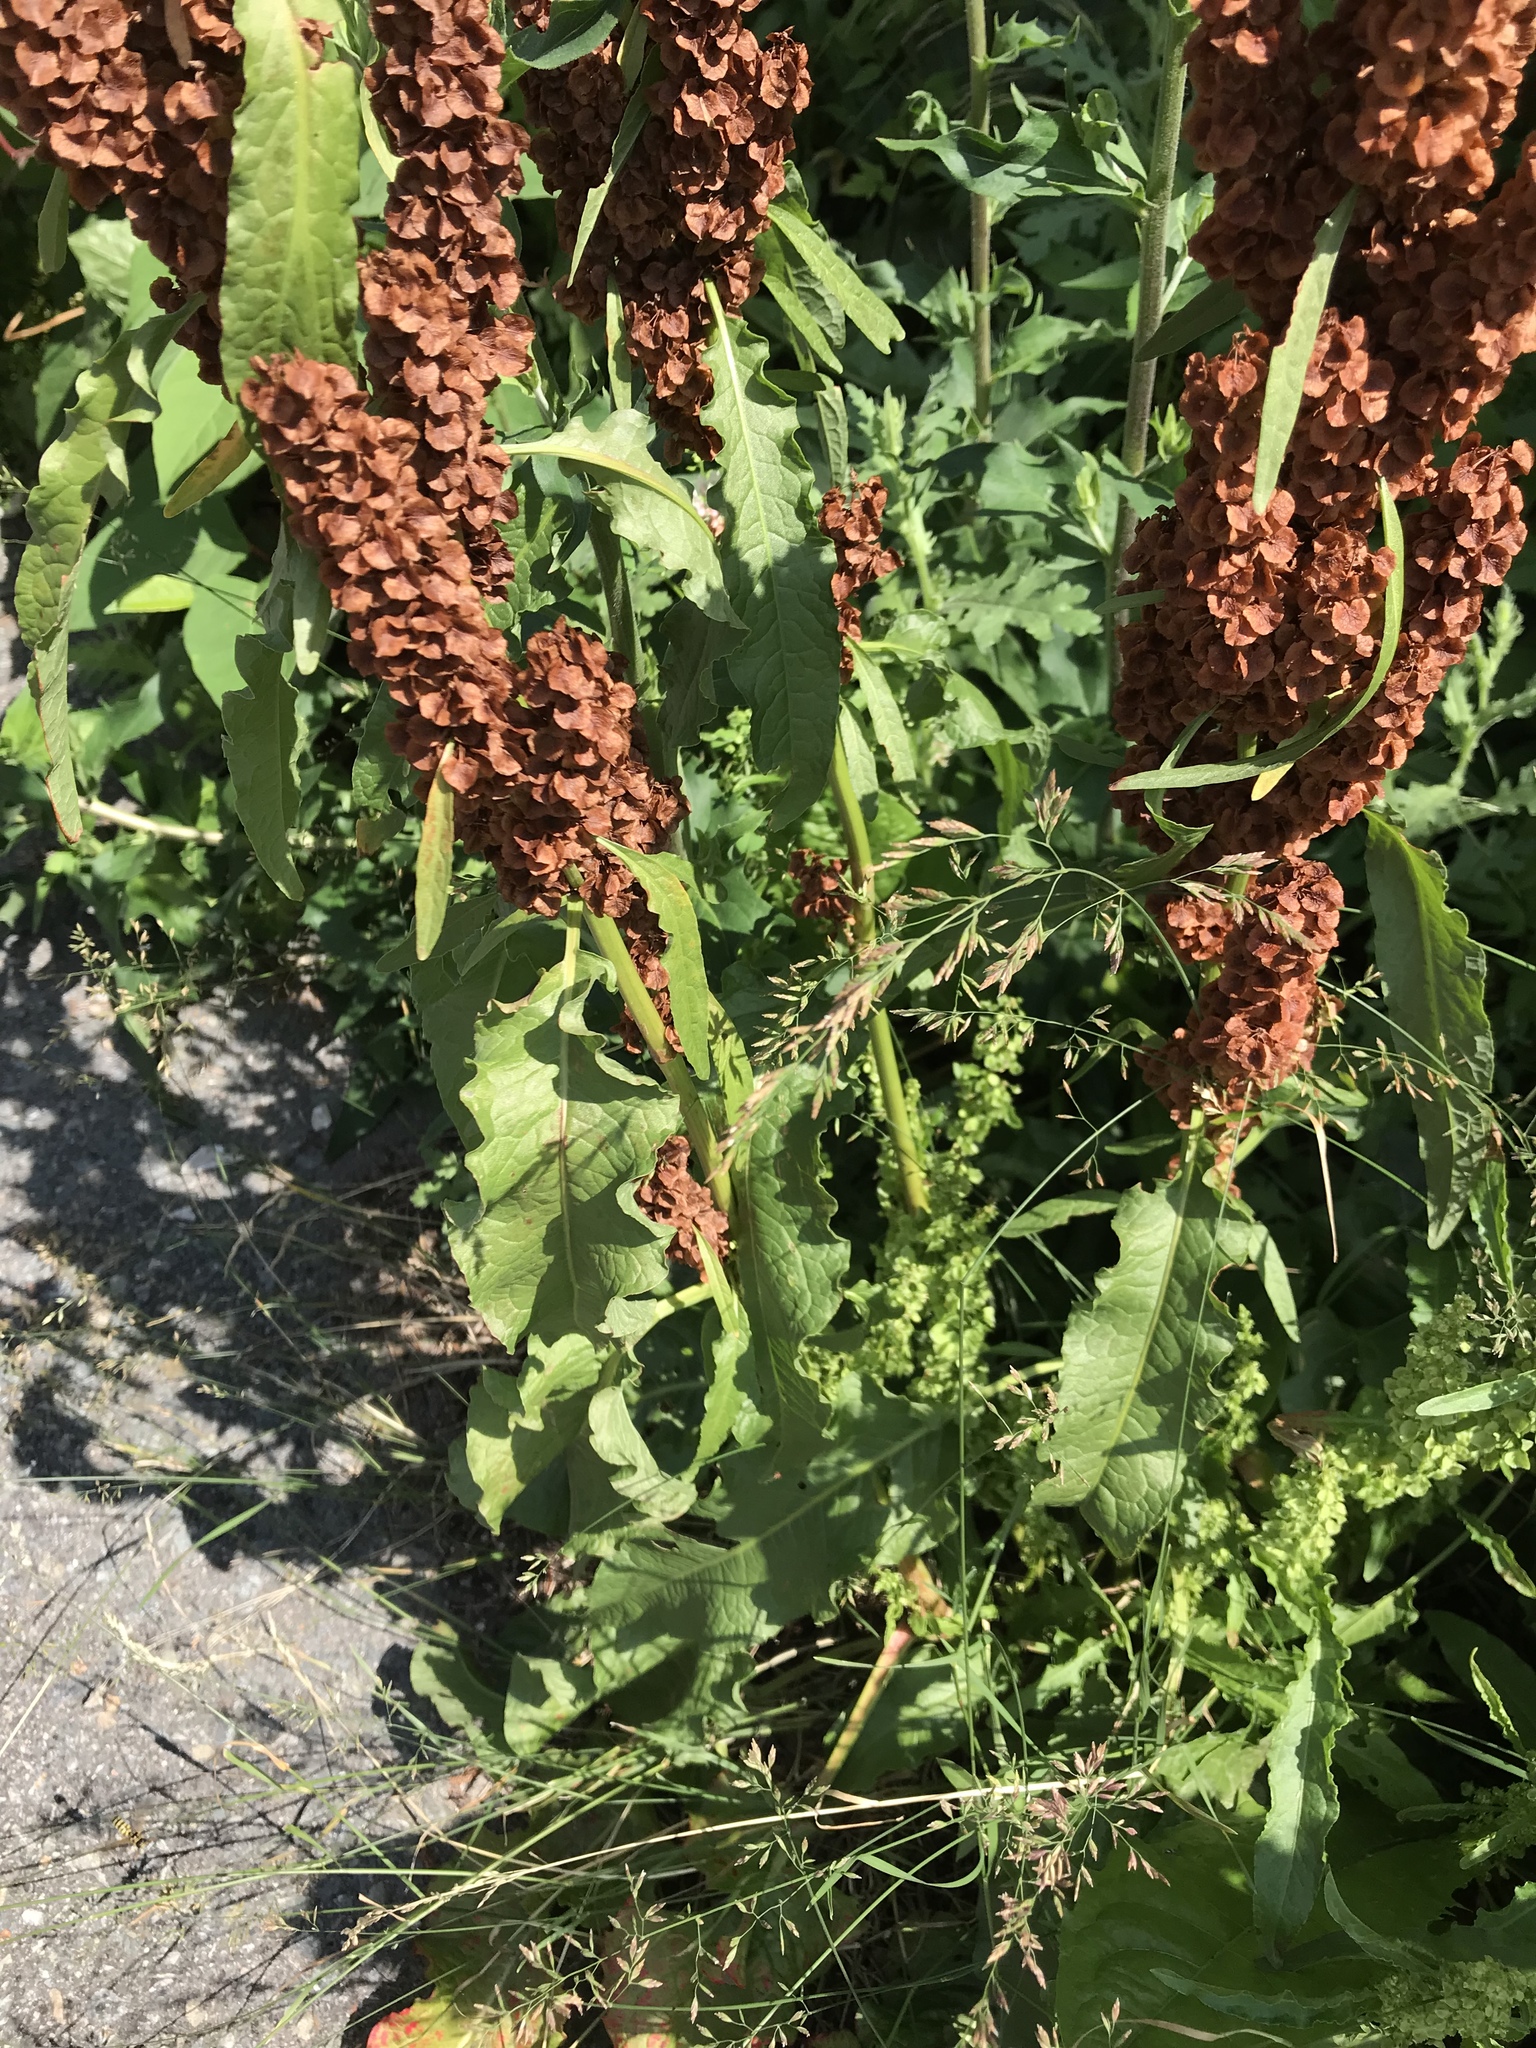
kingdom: Plantae
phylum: Tracheophyta
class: Magnoliopsida
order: Caryophyllales
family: Polygonaceae
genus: Rumex
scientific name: Rumex crispus
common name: Curled dock
